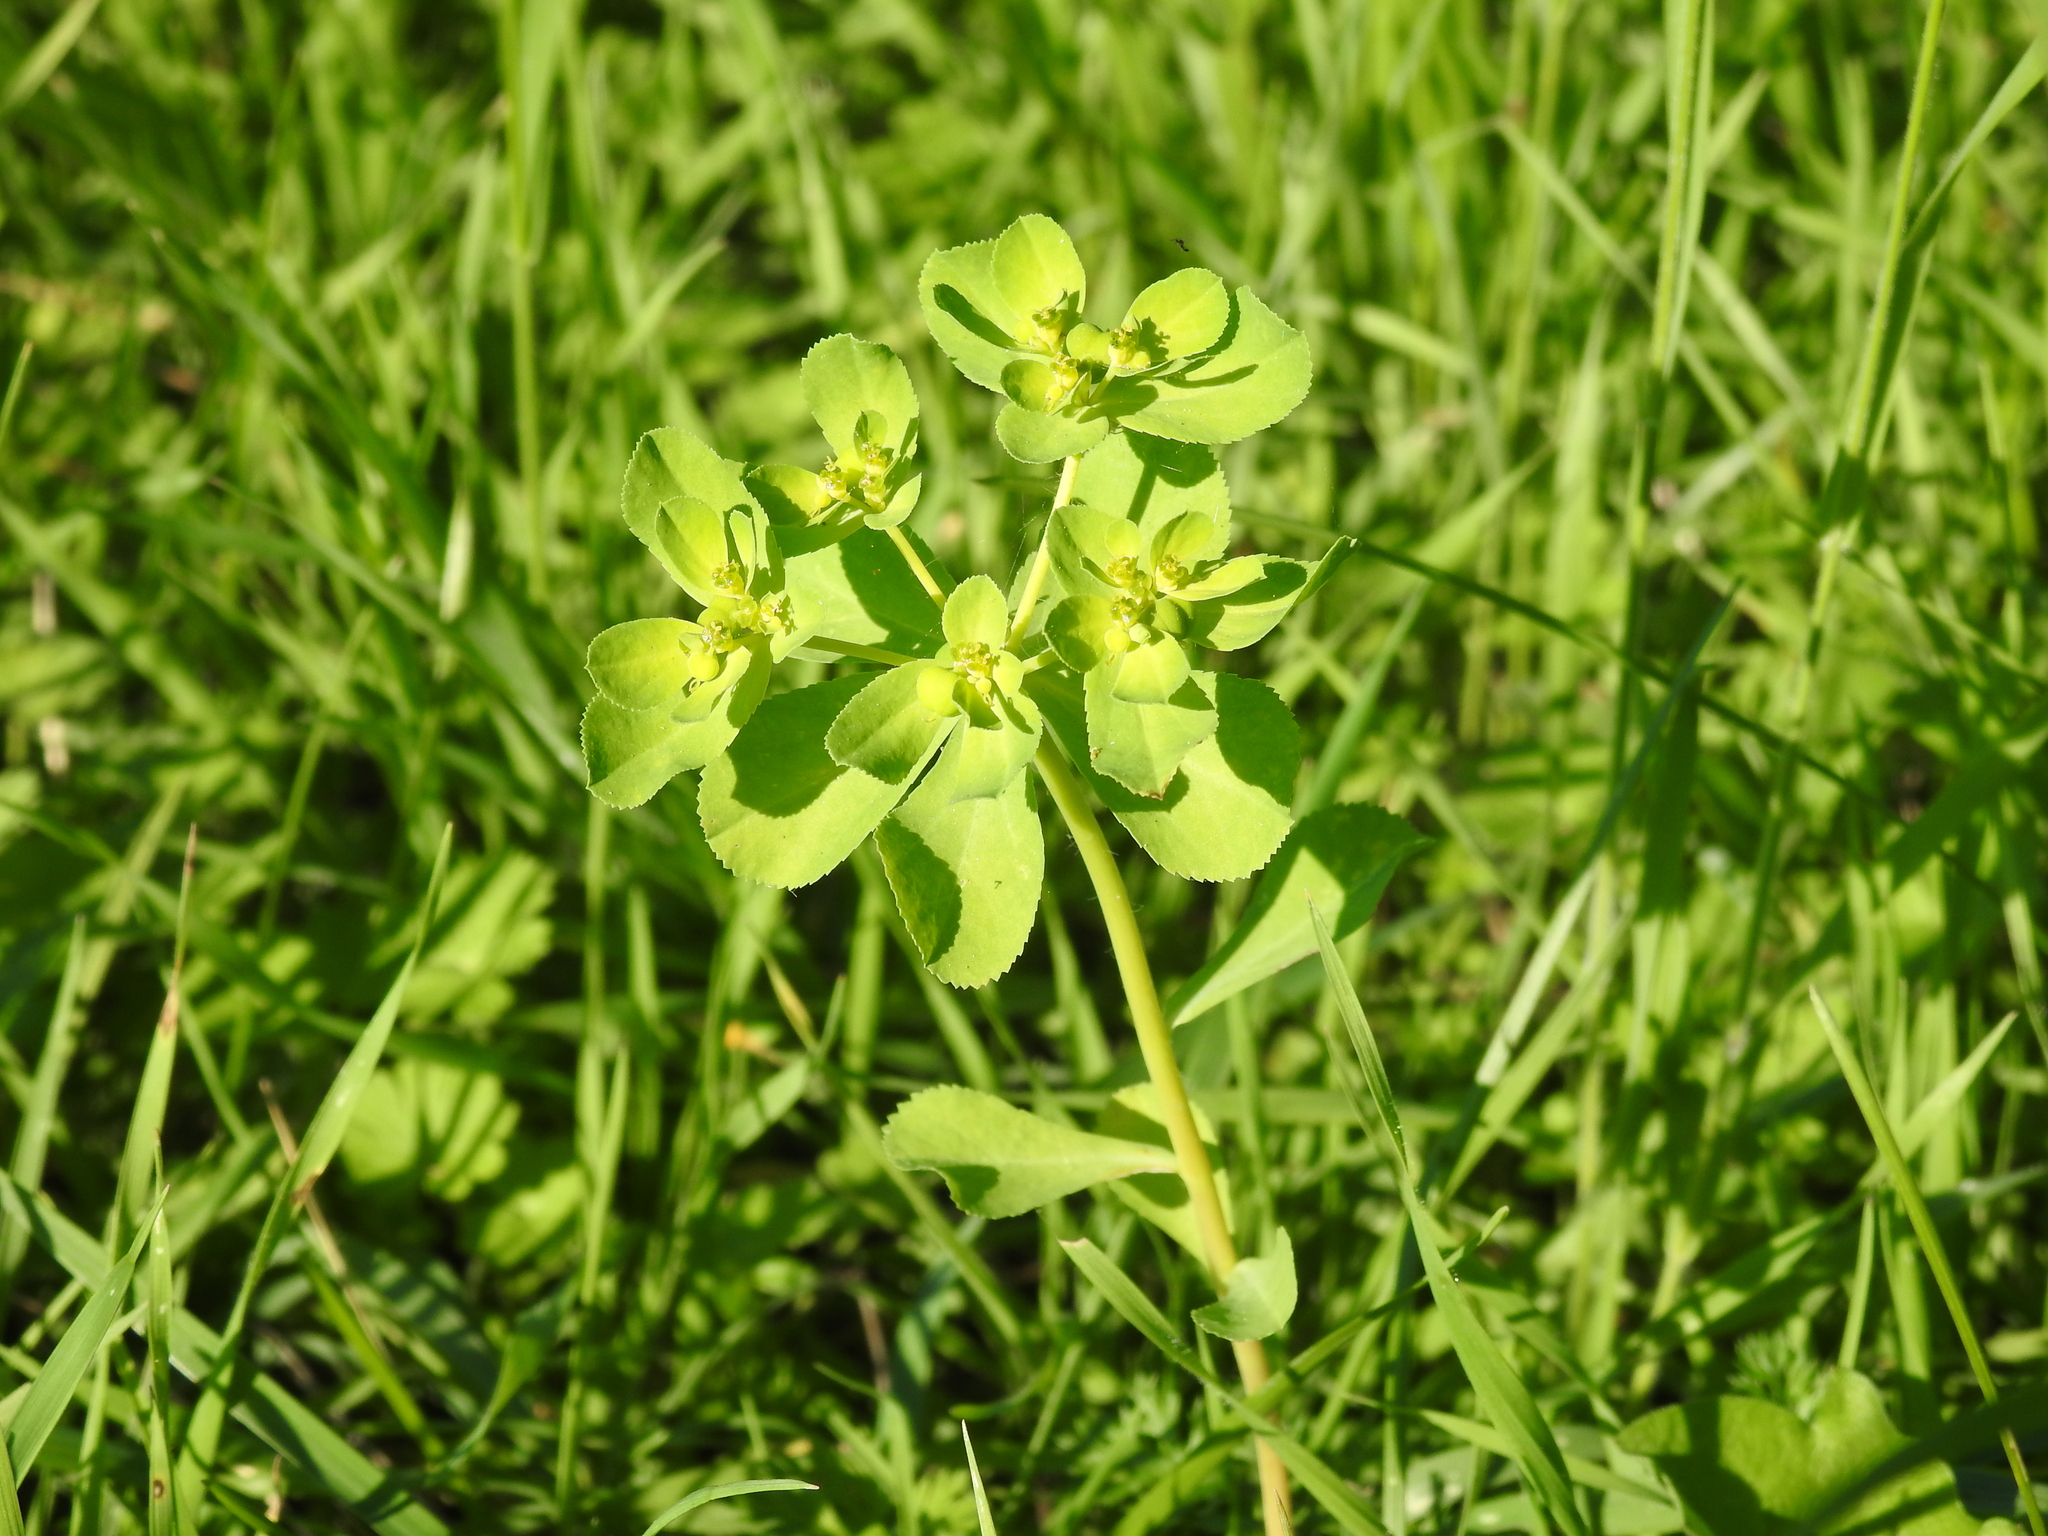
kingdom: Plantae
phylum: Tracheophyta
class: Magnoliopsida
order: Malpighiales
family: Euphorbiaceae
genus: Euphorbia
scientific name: Euphorbia helioscopia
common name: Sun spurge
